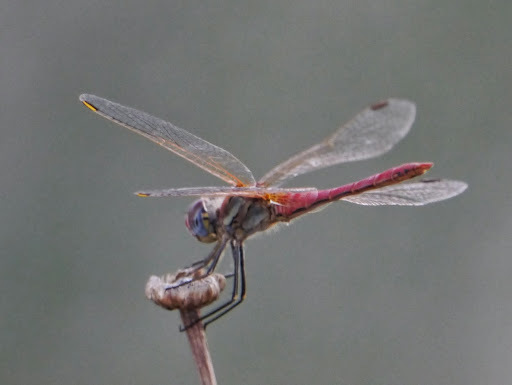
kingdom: Animalia
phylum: Arthropoda
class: Insecta
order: Odonata
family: Libellulidae
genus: Sympetrum
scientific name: Sympetrum fonscolombii
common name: Red-veined darter
